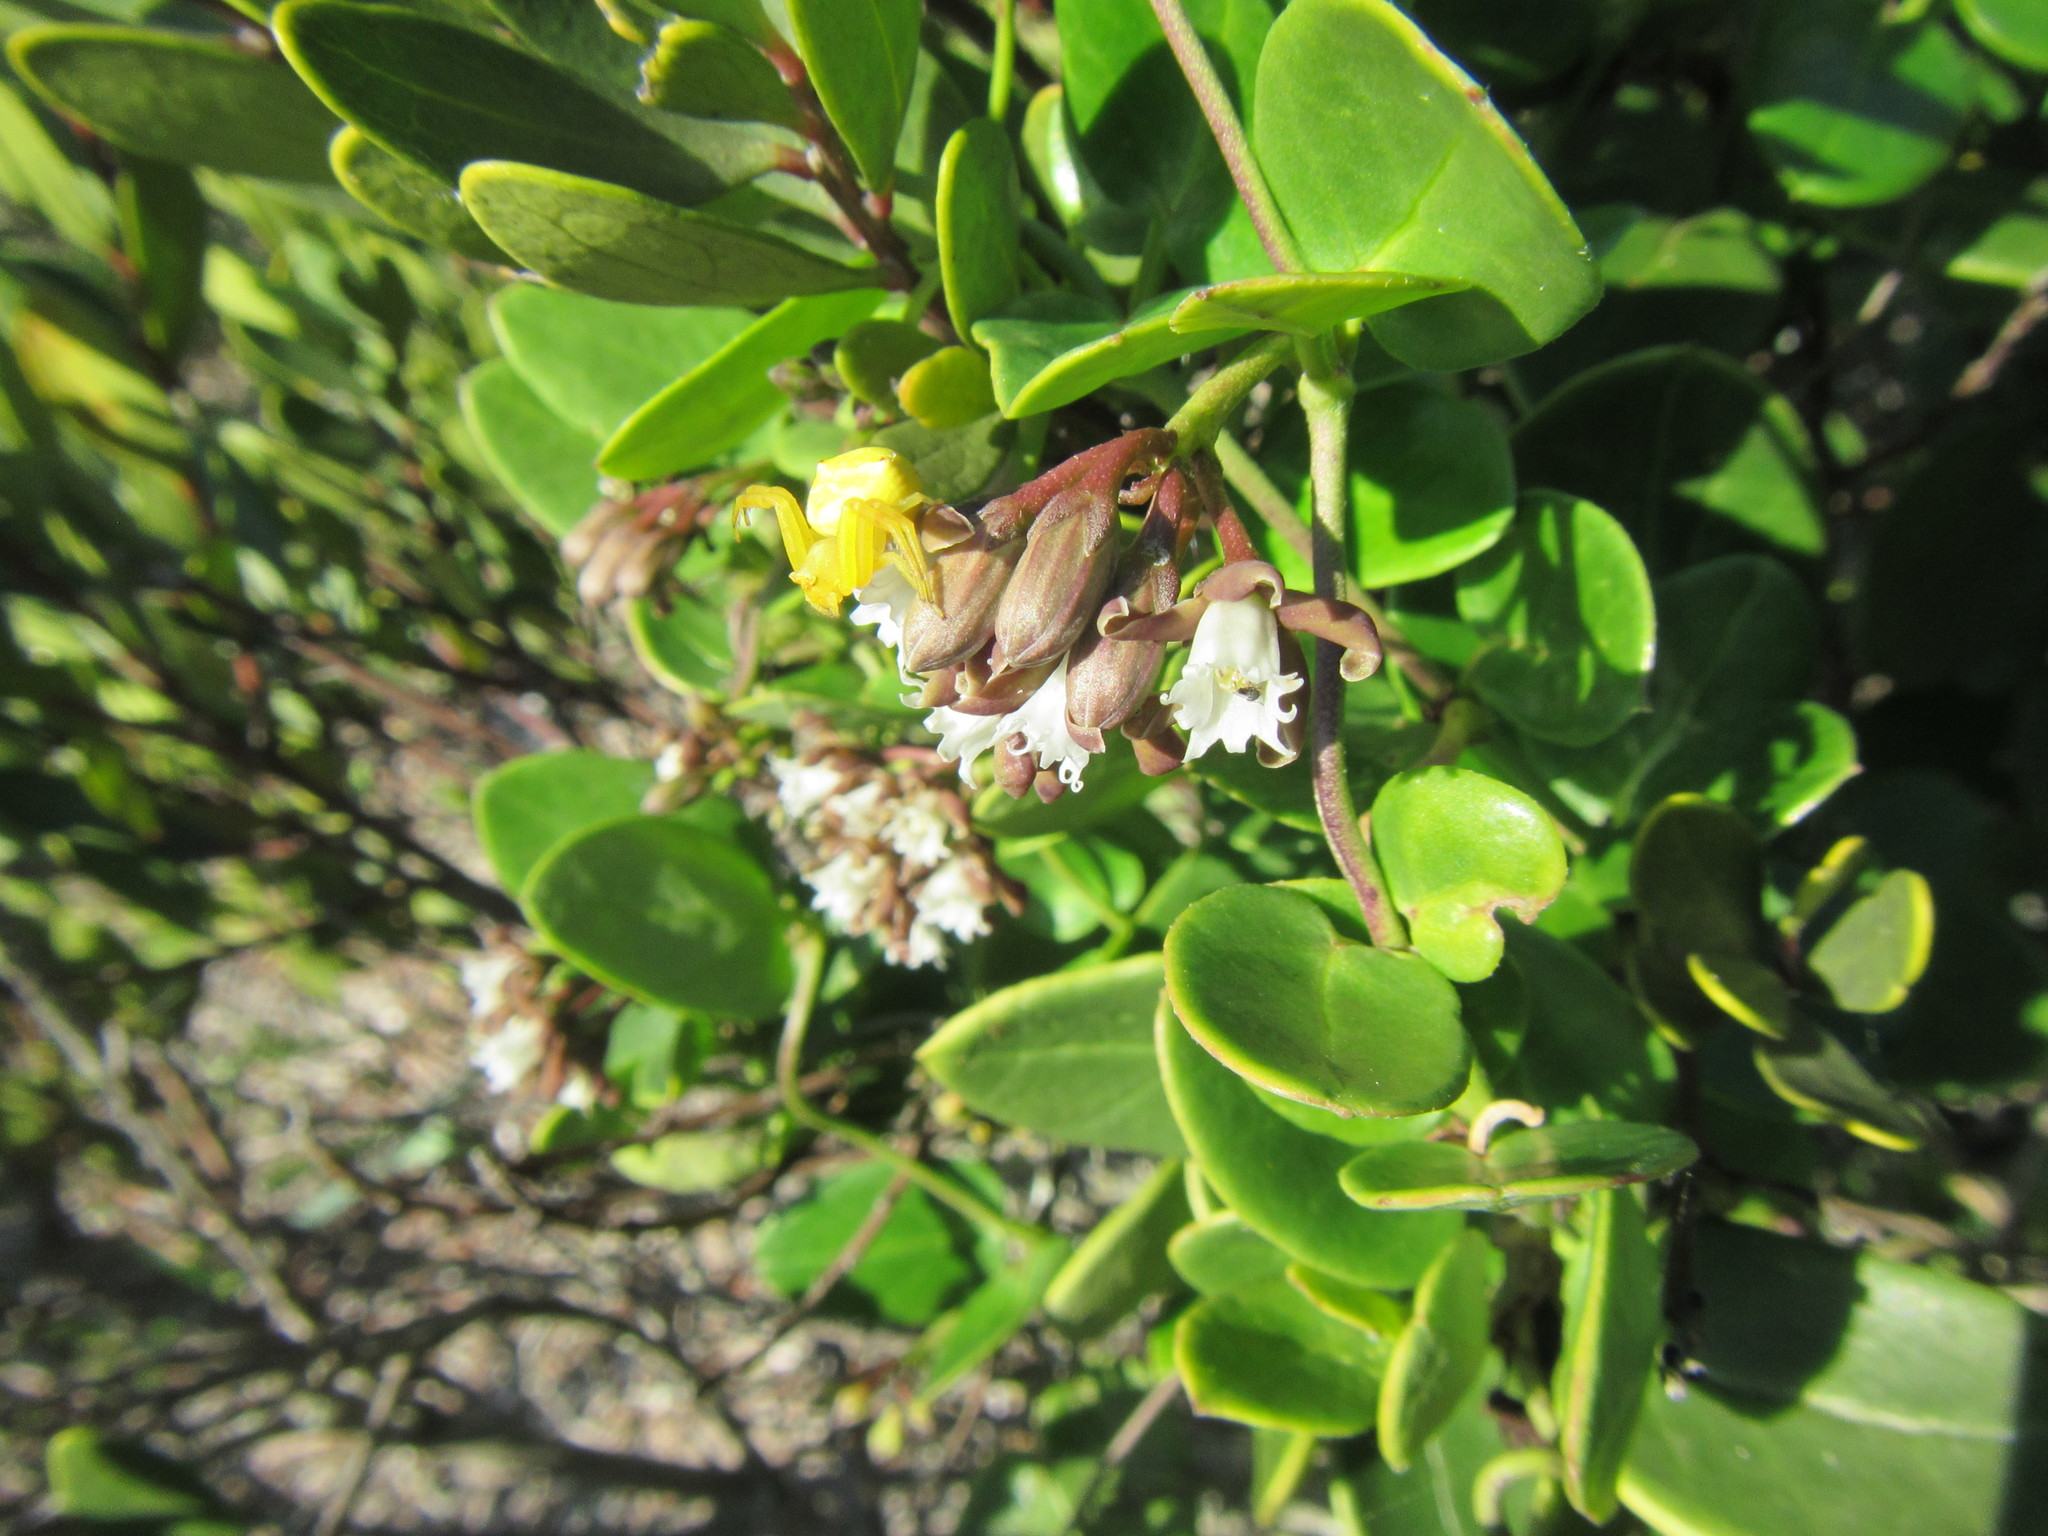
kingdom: Plantae
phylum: Tracheophyta
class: Magnoliopsida
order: Gentianales
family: Apocynaceae
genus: Cynanchum
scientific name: Cynanchum africanum
